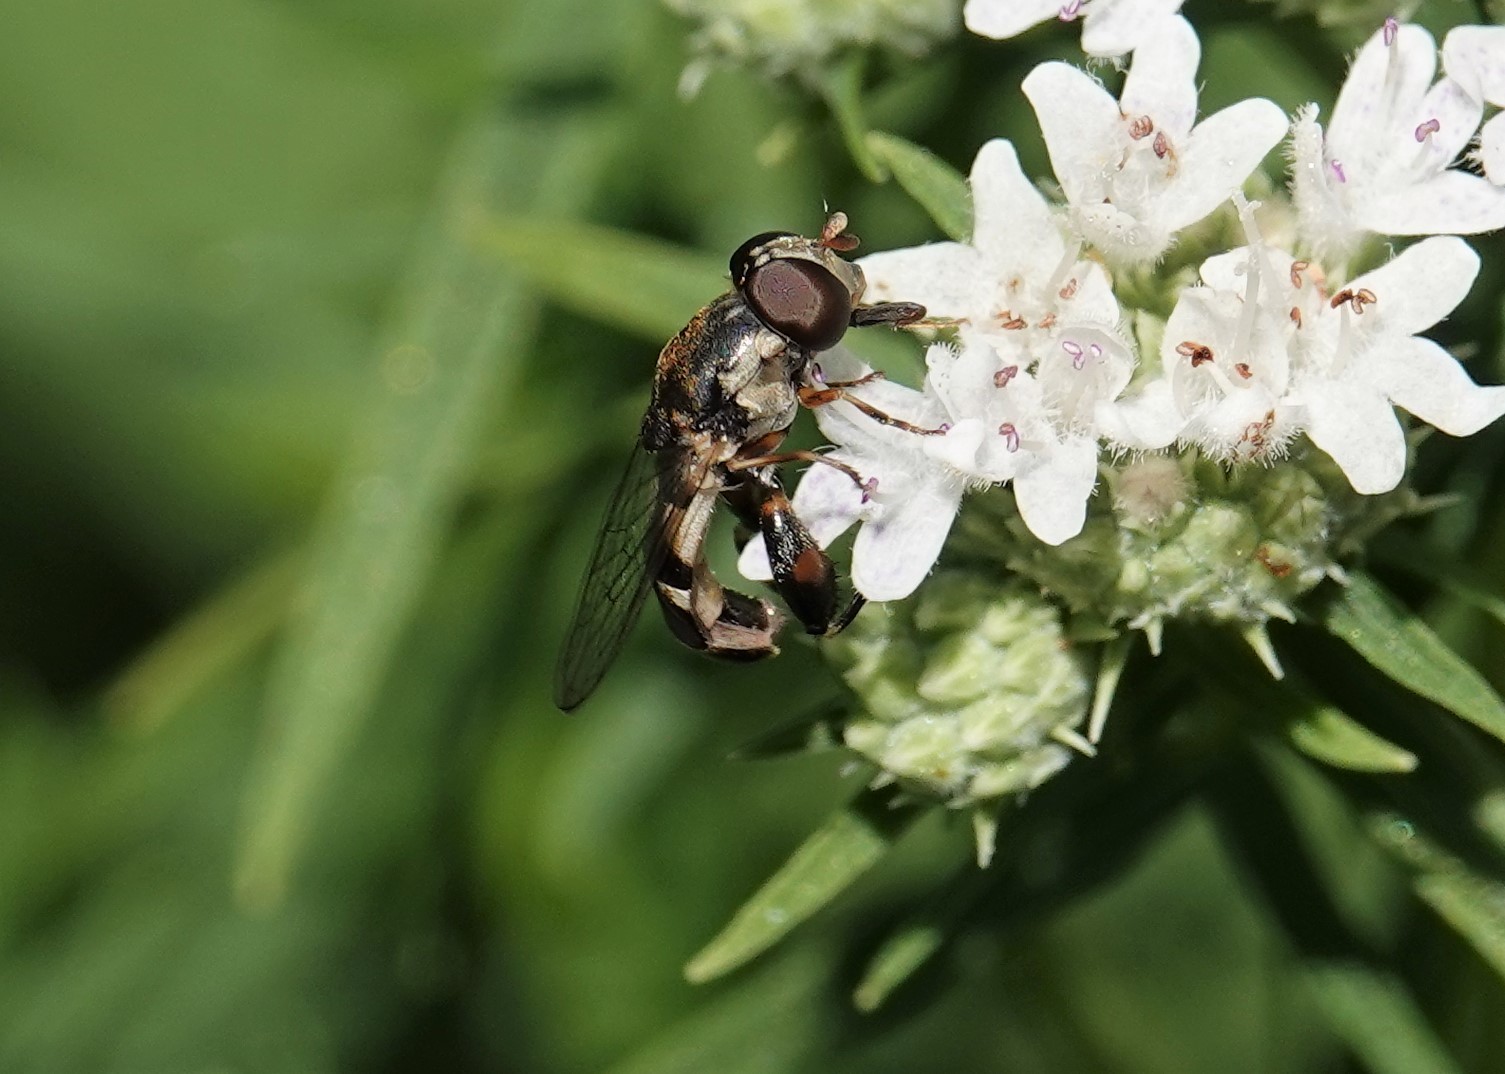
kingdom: Animalia
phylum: Arthropoda
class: Insecta
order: Diptera
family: Syrphidae
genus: Syritta
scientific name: Syritta pipiens
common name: Hover fly
